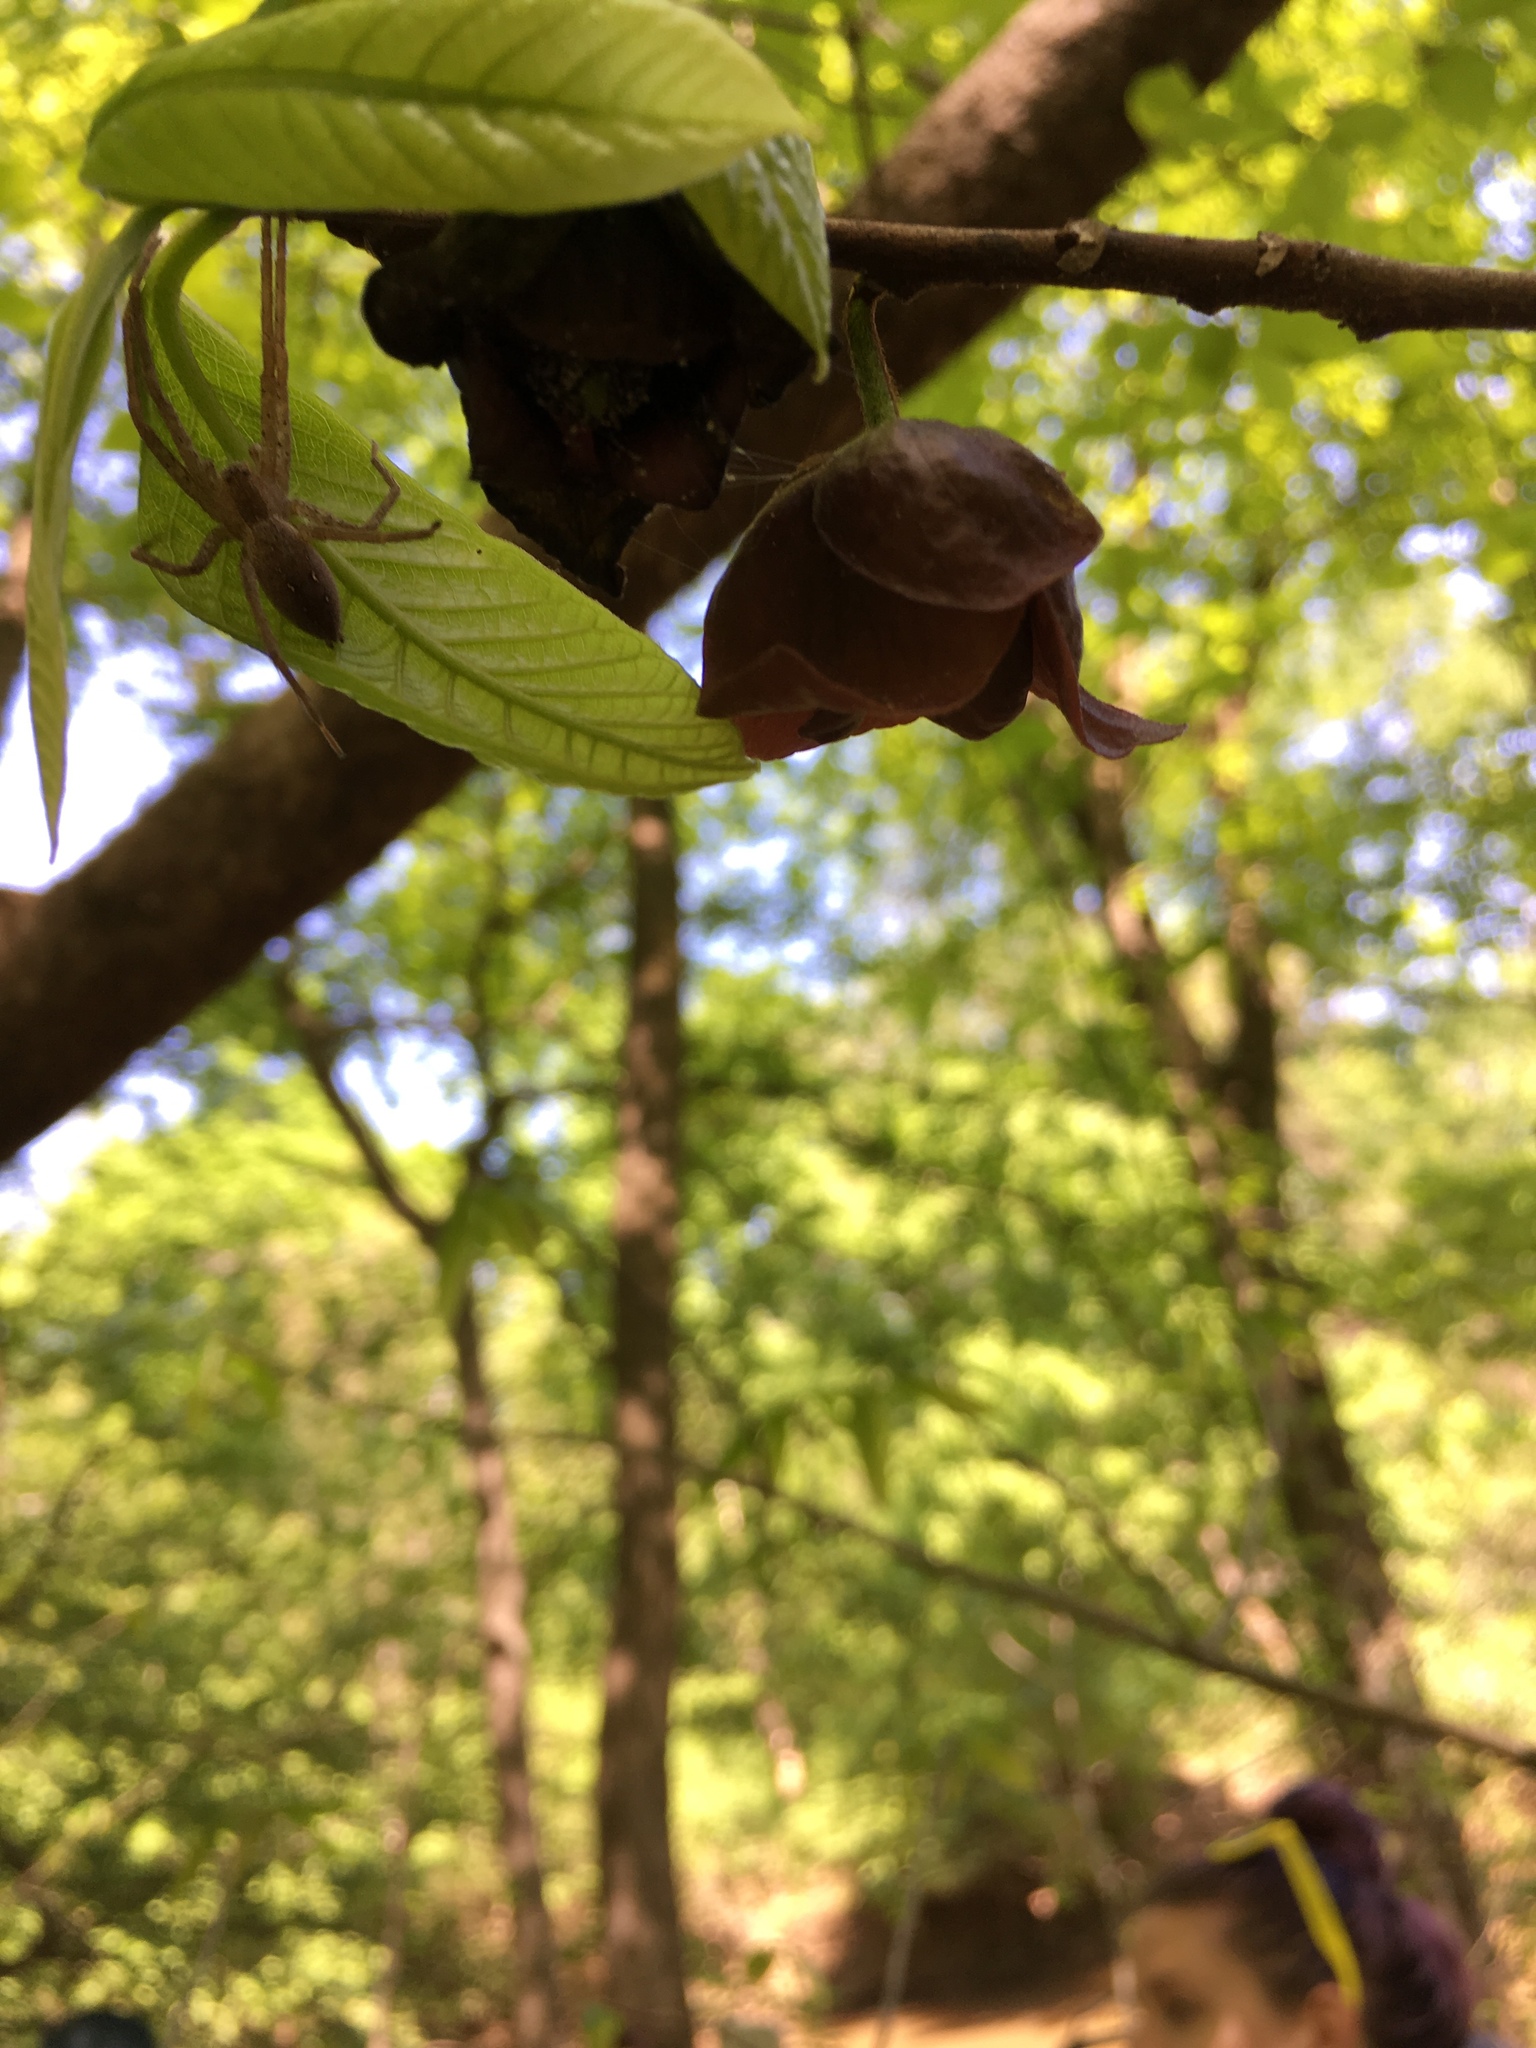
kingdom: Animalia
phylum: Arthropoda
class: Arachnida
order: Araneae
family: Pisauridae
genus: Pisaurina
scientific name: Pisaurina mira
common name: American nursery web spider
